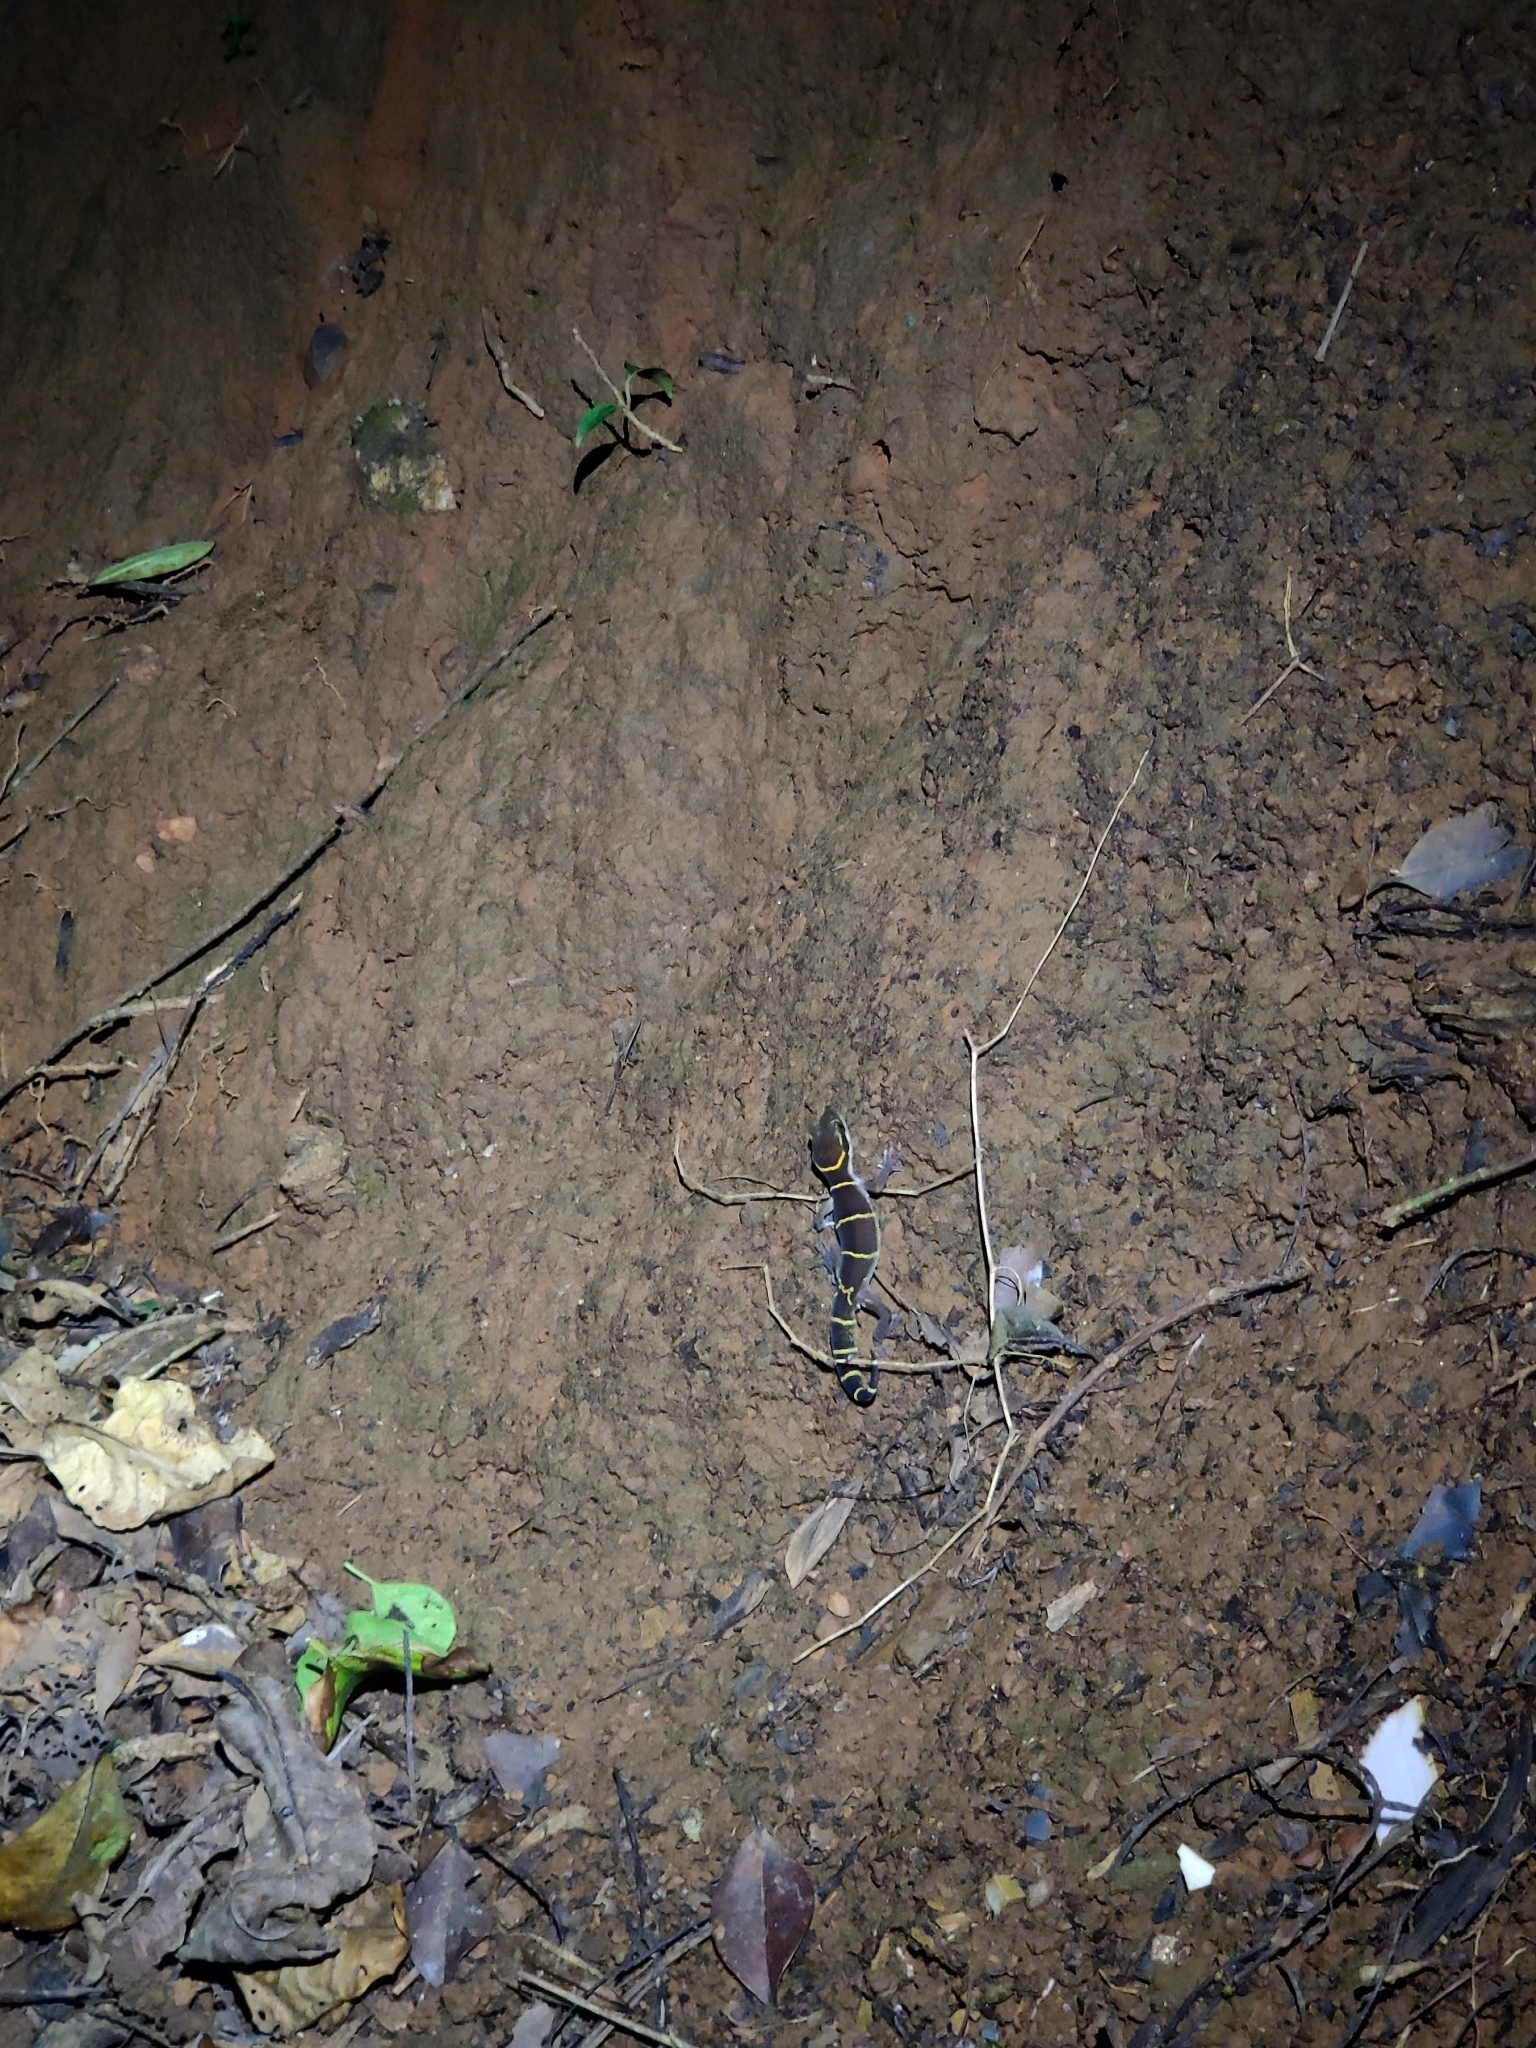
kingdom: Animalia
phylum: Chordata
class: Squamata
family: Gekkonidae
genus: Cyrtodactylus
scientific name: Cyrtodactylus albofasciatus
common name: Boulenger’s indian gecko
